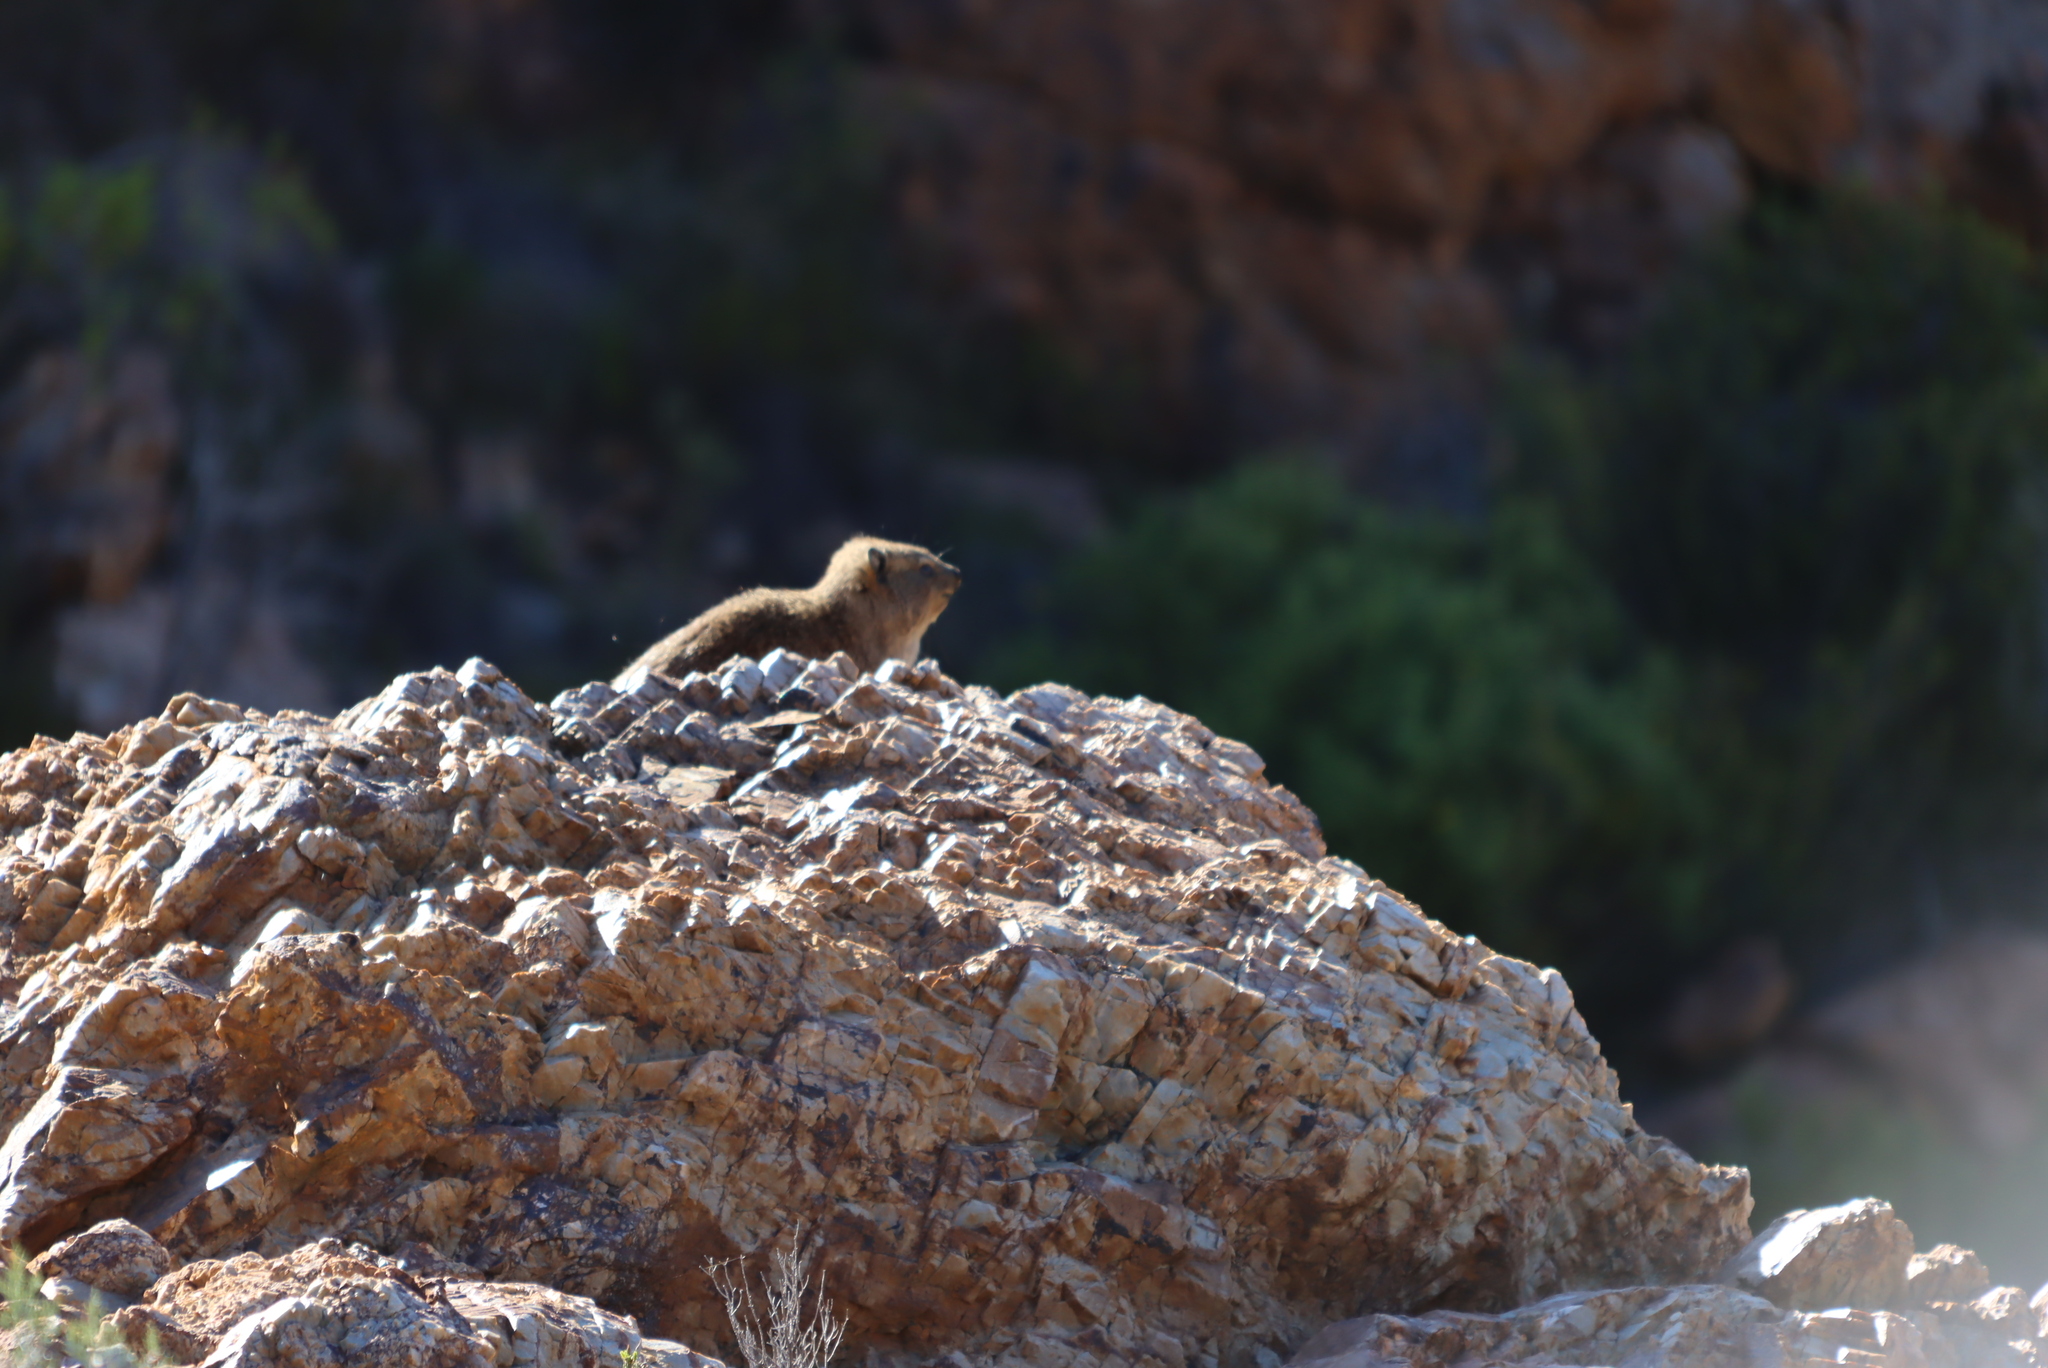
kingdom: Animalia
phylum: Chordata
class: Mammalia
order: Hyracoidea
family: Procaviidae
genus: Procavia
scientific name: Procavia capensis
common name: Rock hyrax
